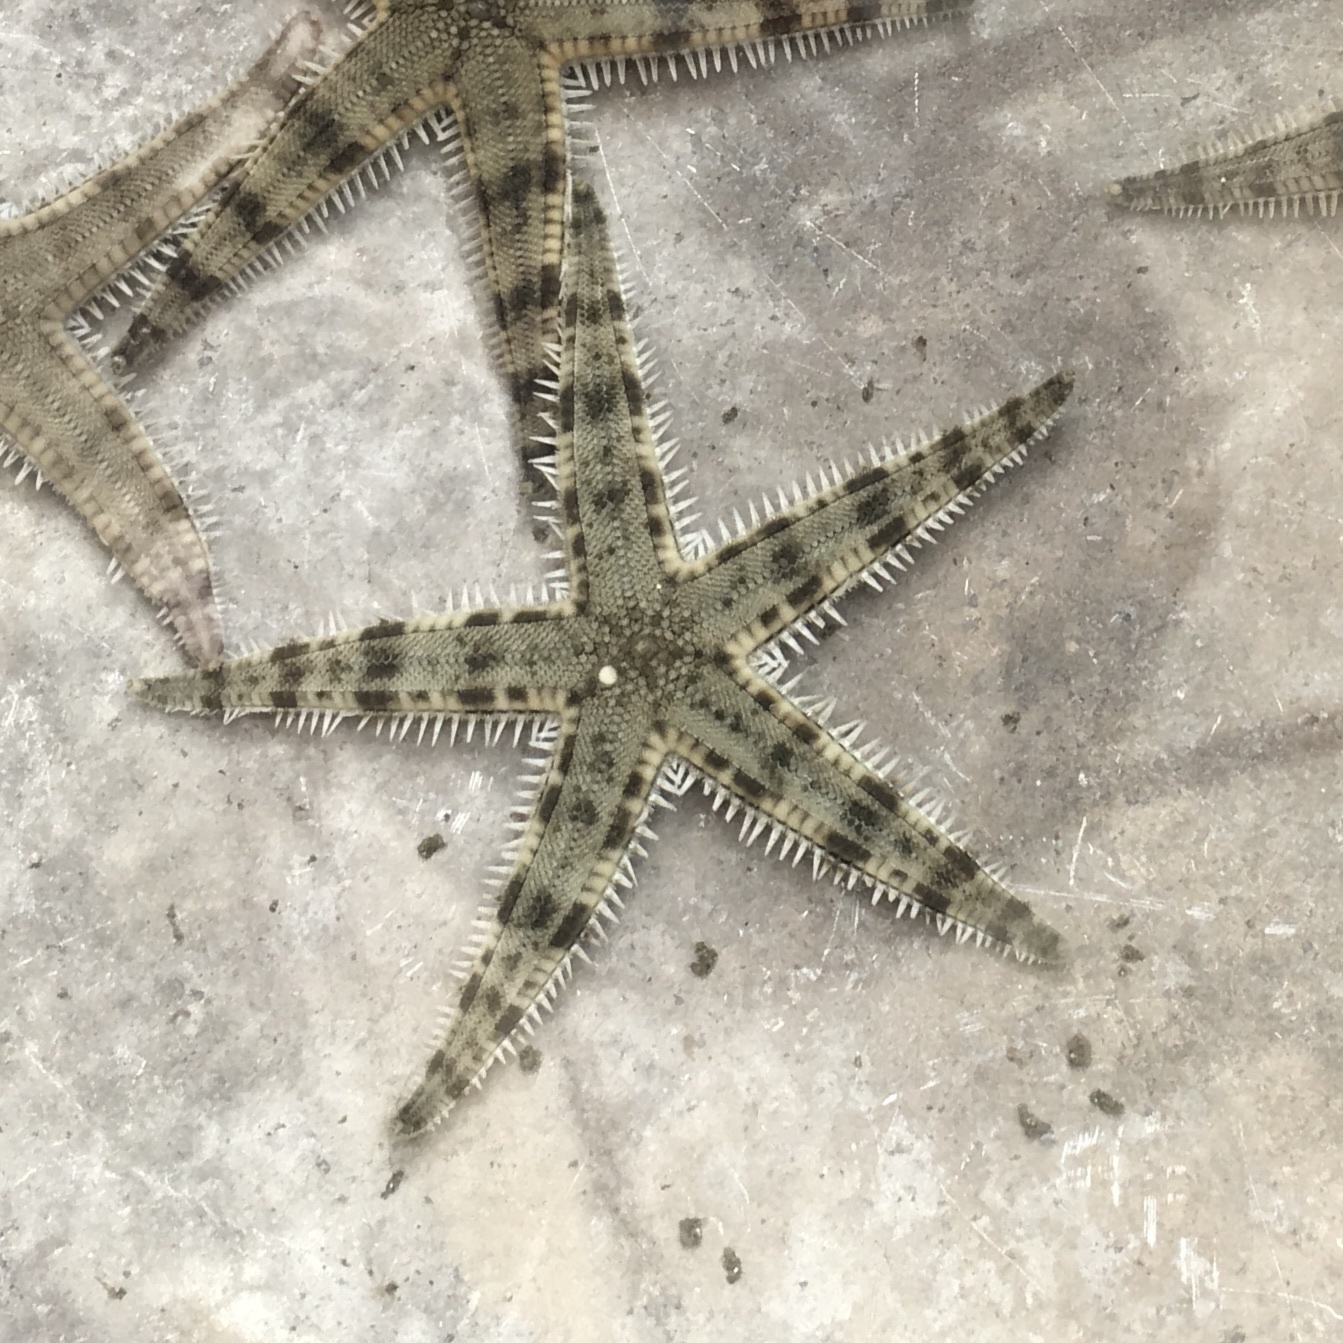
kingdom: Animalia
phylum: Echinodermata
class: Asteroidea
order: Valvatida
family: Archasteridae
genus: Archaster
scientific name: Archaster typicus
